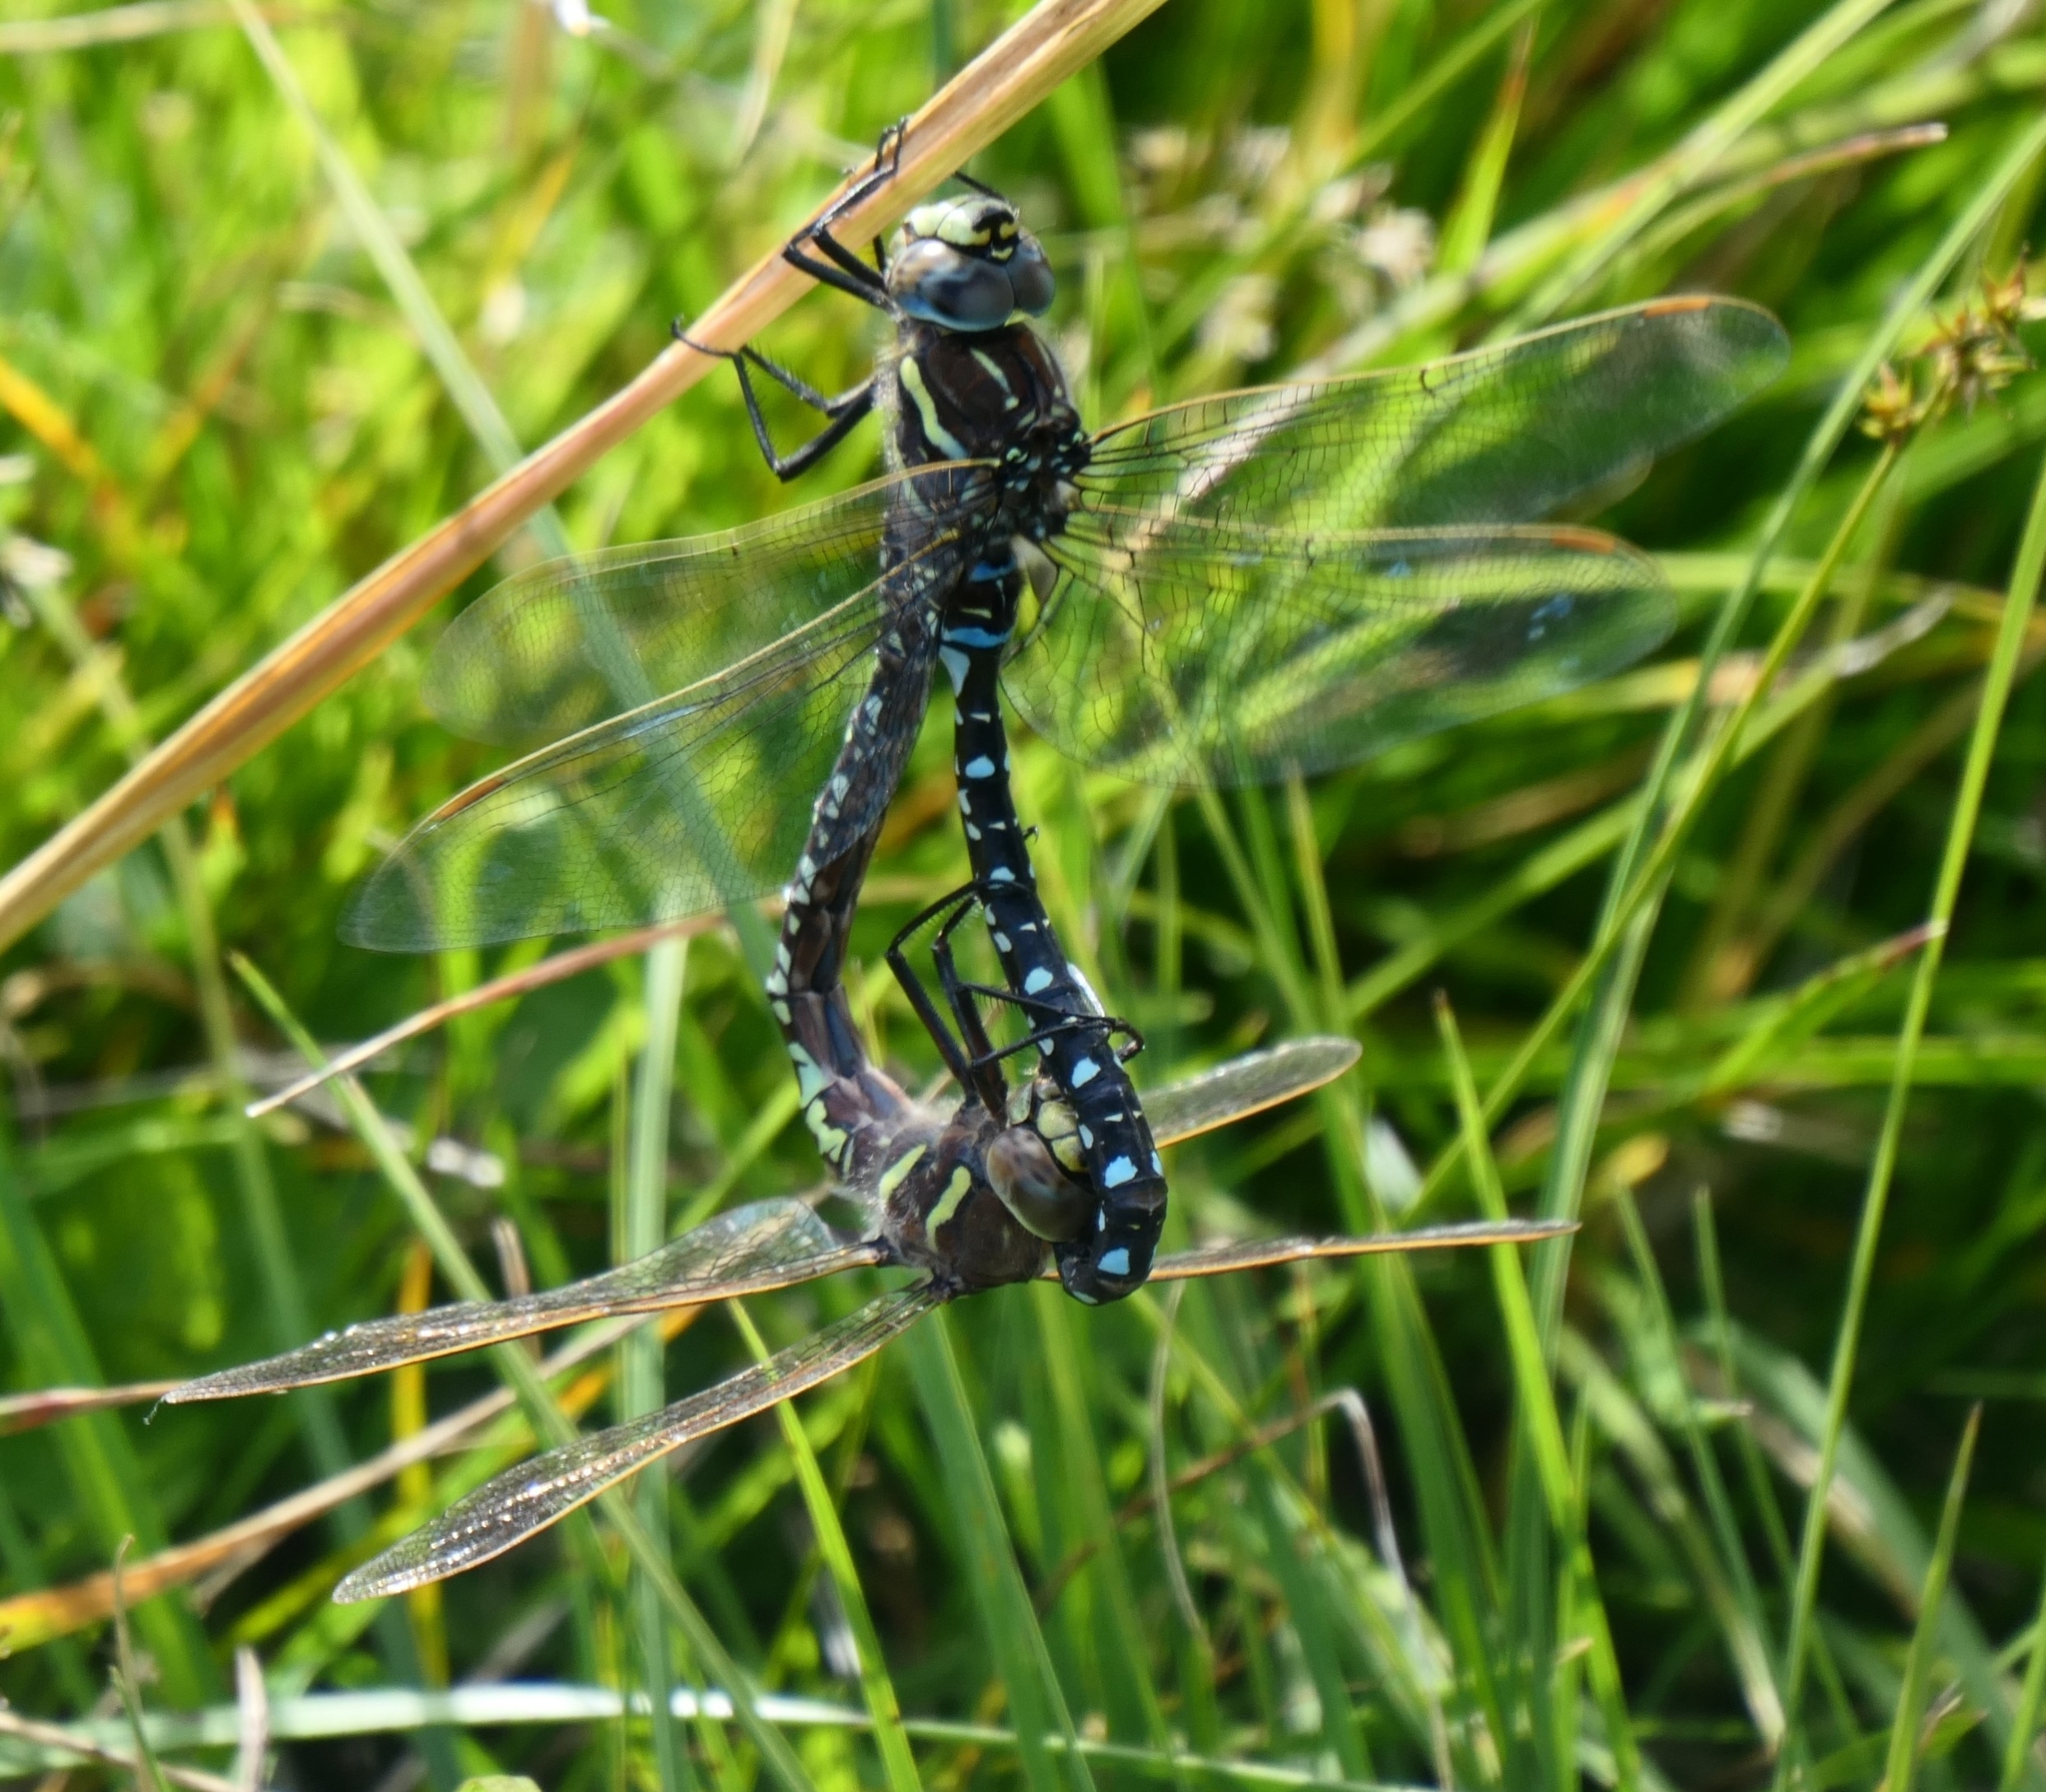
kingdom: Animalia
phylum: Arthropoda
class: Insecta
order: Odonata
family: Aeshnidae
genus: Aeshna
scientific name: Aeshna juncea
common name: Moorland hawker
